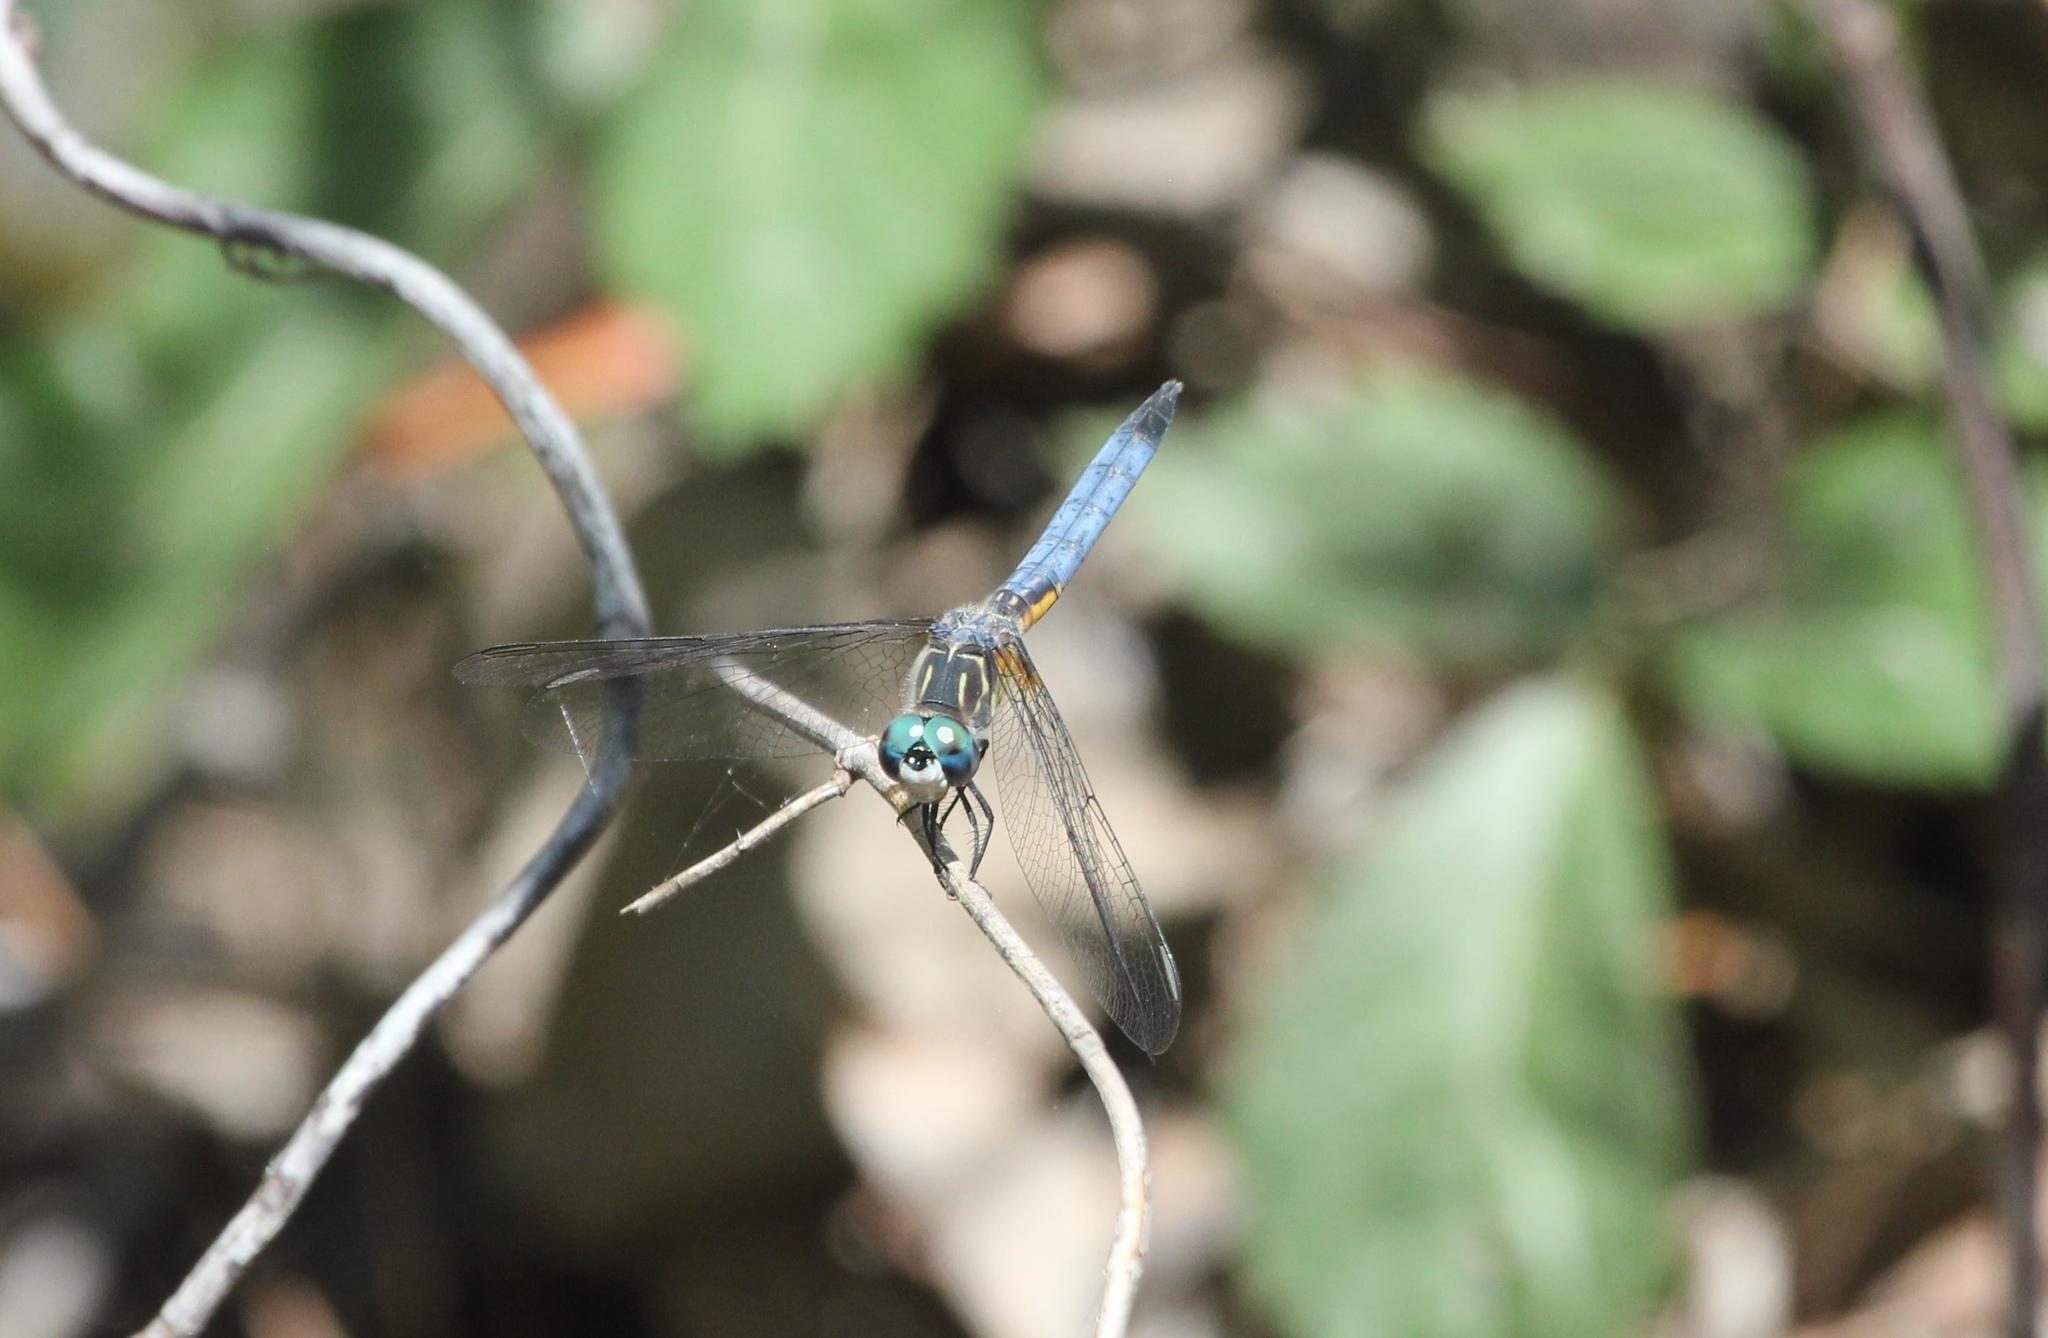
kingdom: Animalia
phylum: Arthropoda
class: Insecta
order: Odonata
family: Libellulidae
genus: Pachydiplax
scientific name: Pachydiplax longipennis
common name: Blue dasher
